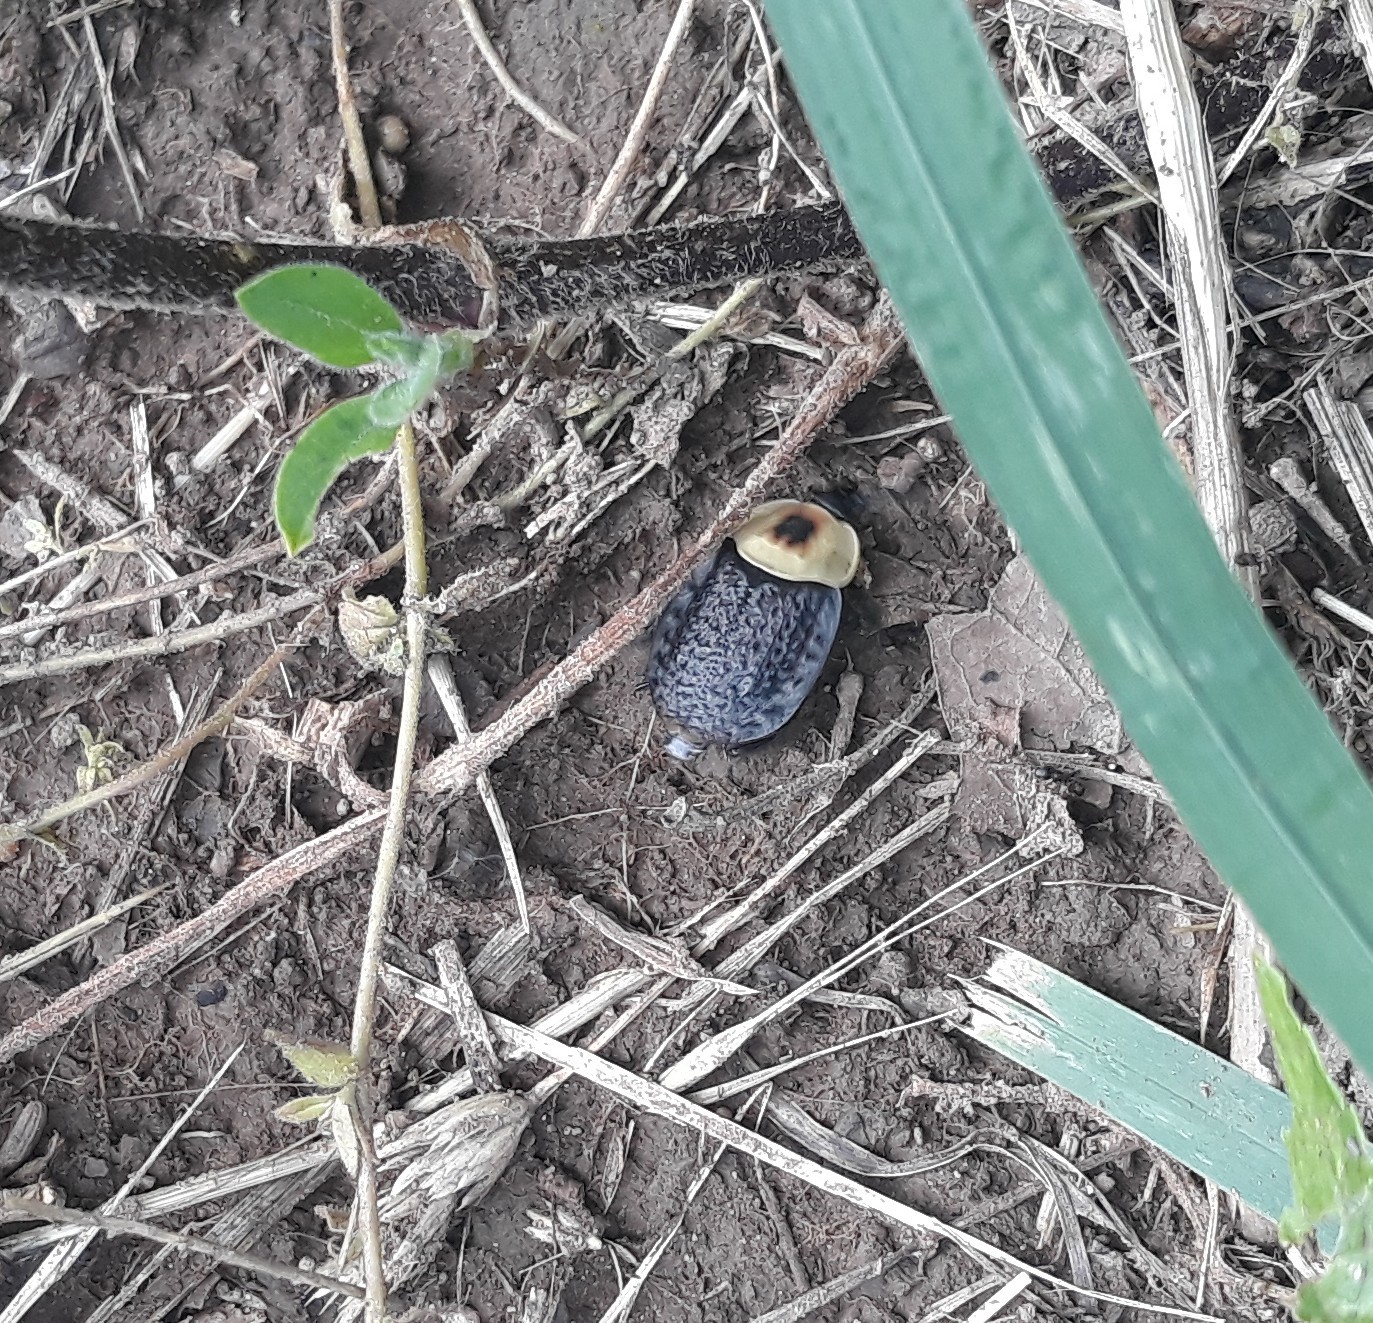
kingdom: Animalia
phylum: Arthropoda
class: Insecta
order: Coleoptera
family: Staphylinidae
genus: Necrophila
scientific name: Necrophila americana
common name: American carrion beetle
